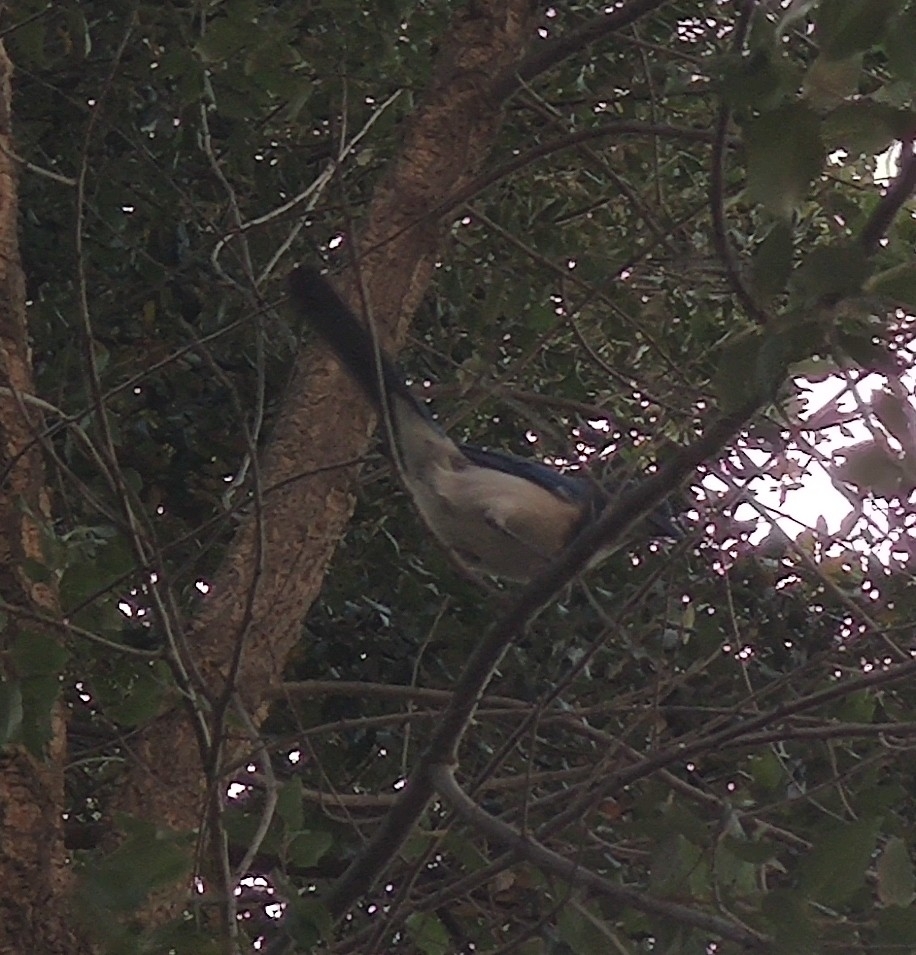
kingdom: Animalia
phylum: Chordata
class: Aves
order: Passeriformes
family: Corvidae
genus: Aphelocoma
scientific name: Aphelocoma californica
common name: California scrub-jay
